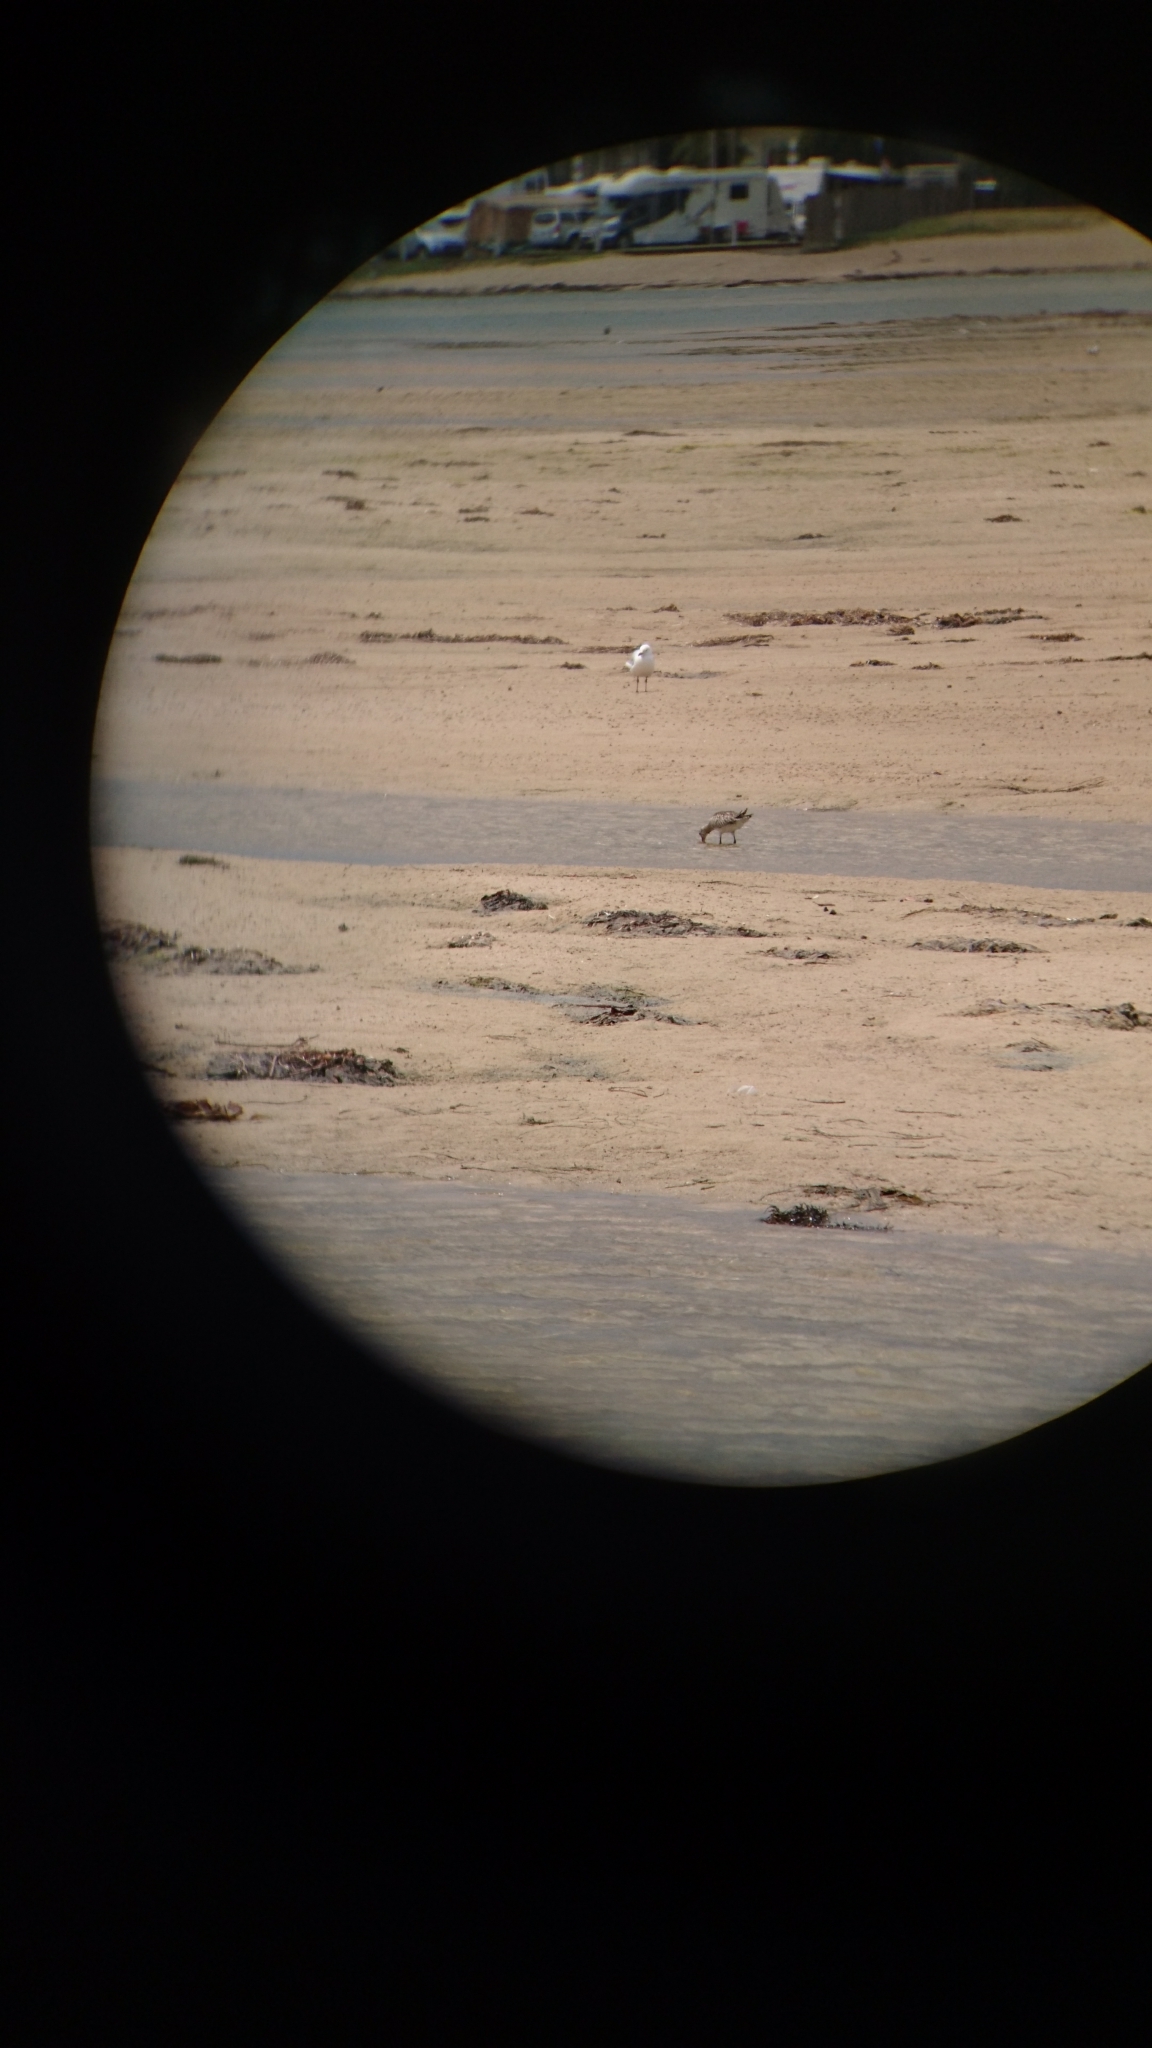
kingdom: Animalia
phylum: Chordata
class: Aves
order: Charadriiformes
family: Scolopacidae
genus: Limosa
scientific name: Limosa lapponica
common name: Bar-tailed godwit
